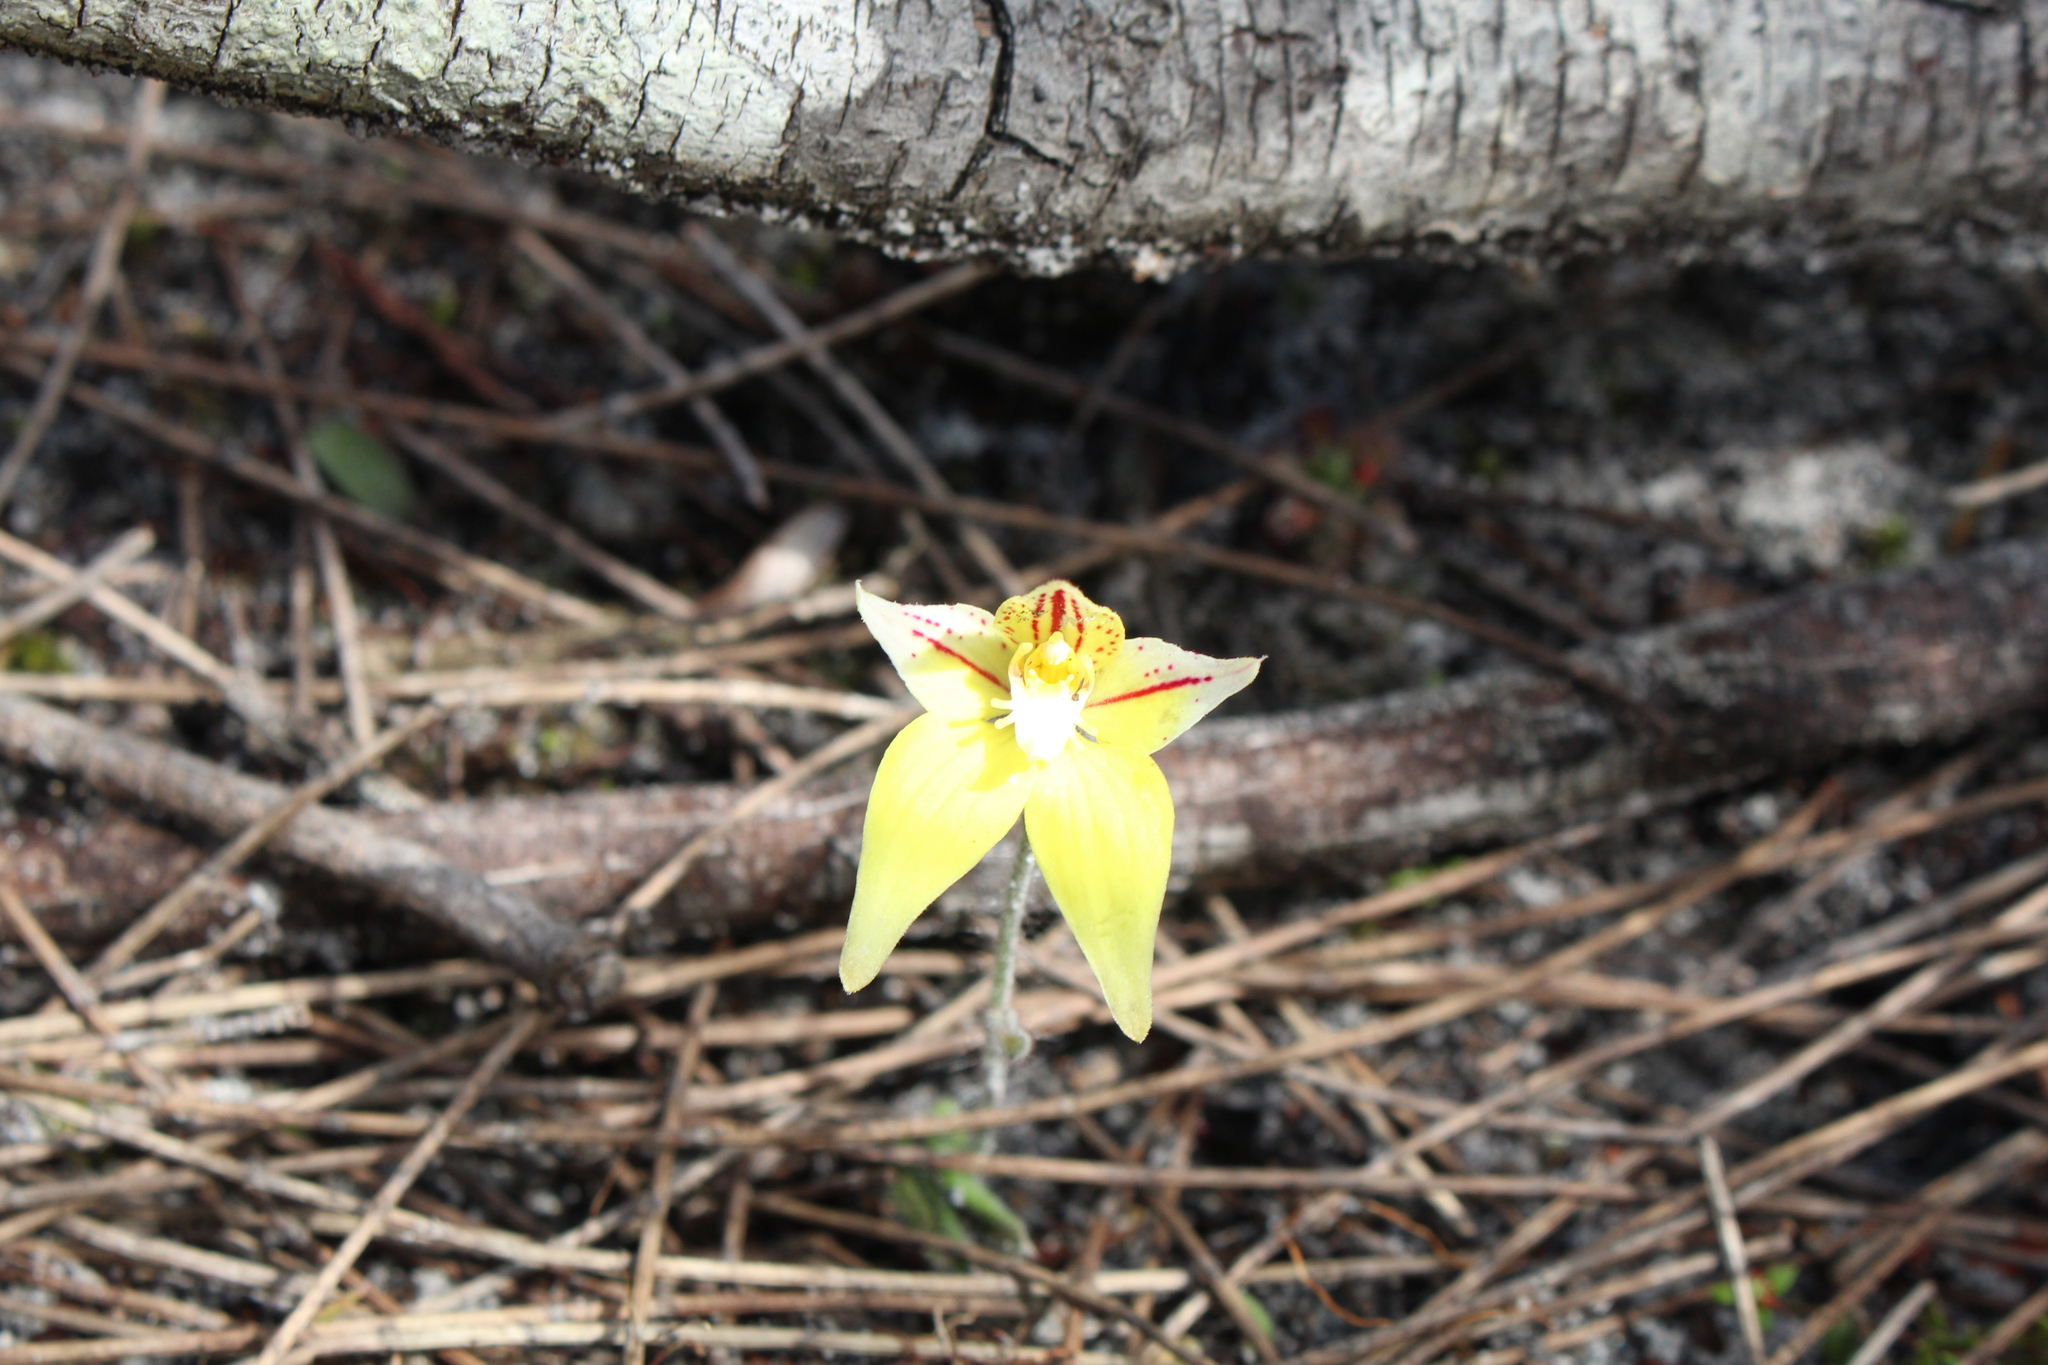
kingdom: Plantae
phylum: Tracheophyta
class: Liliopsida
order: Asparagales
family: Orchidaceae
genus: Caladenia
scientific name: Caladenia flava
